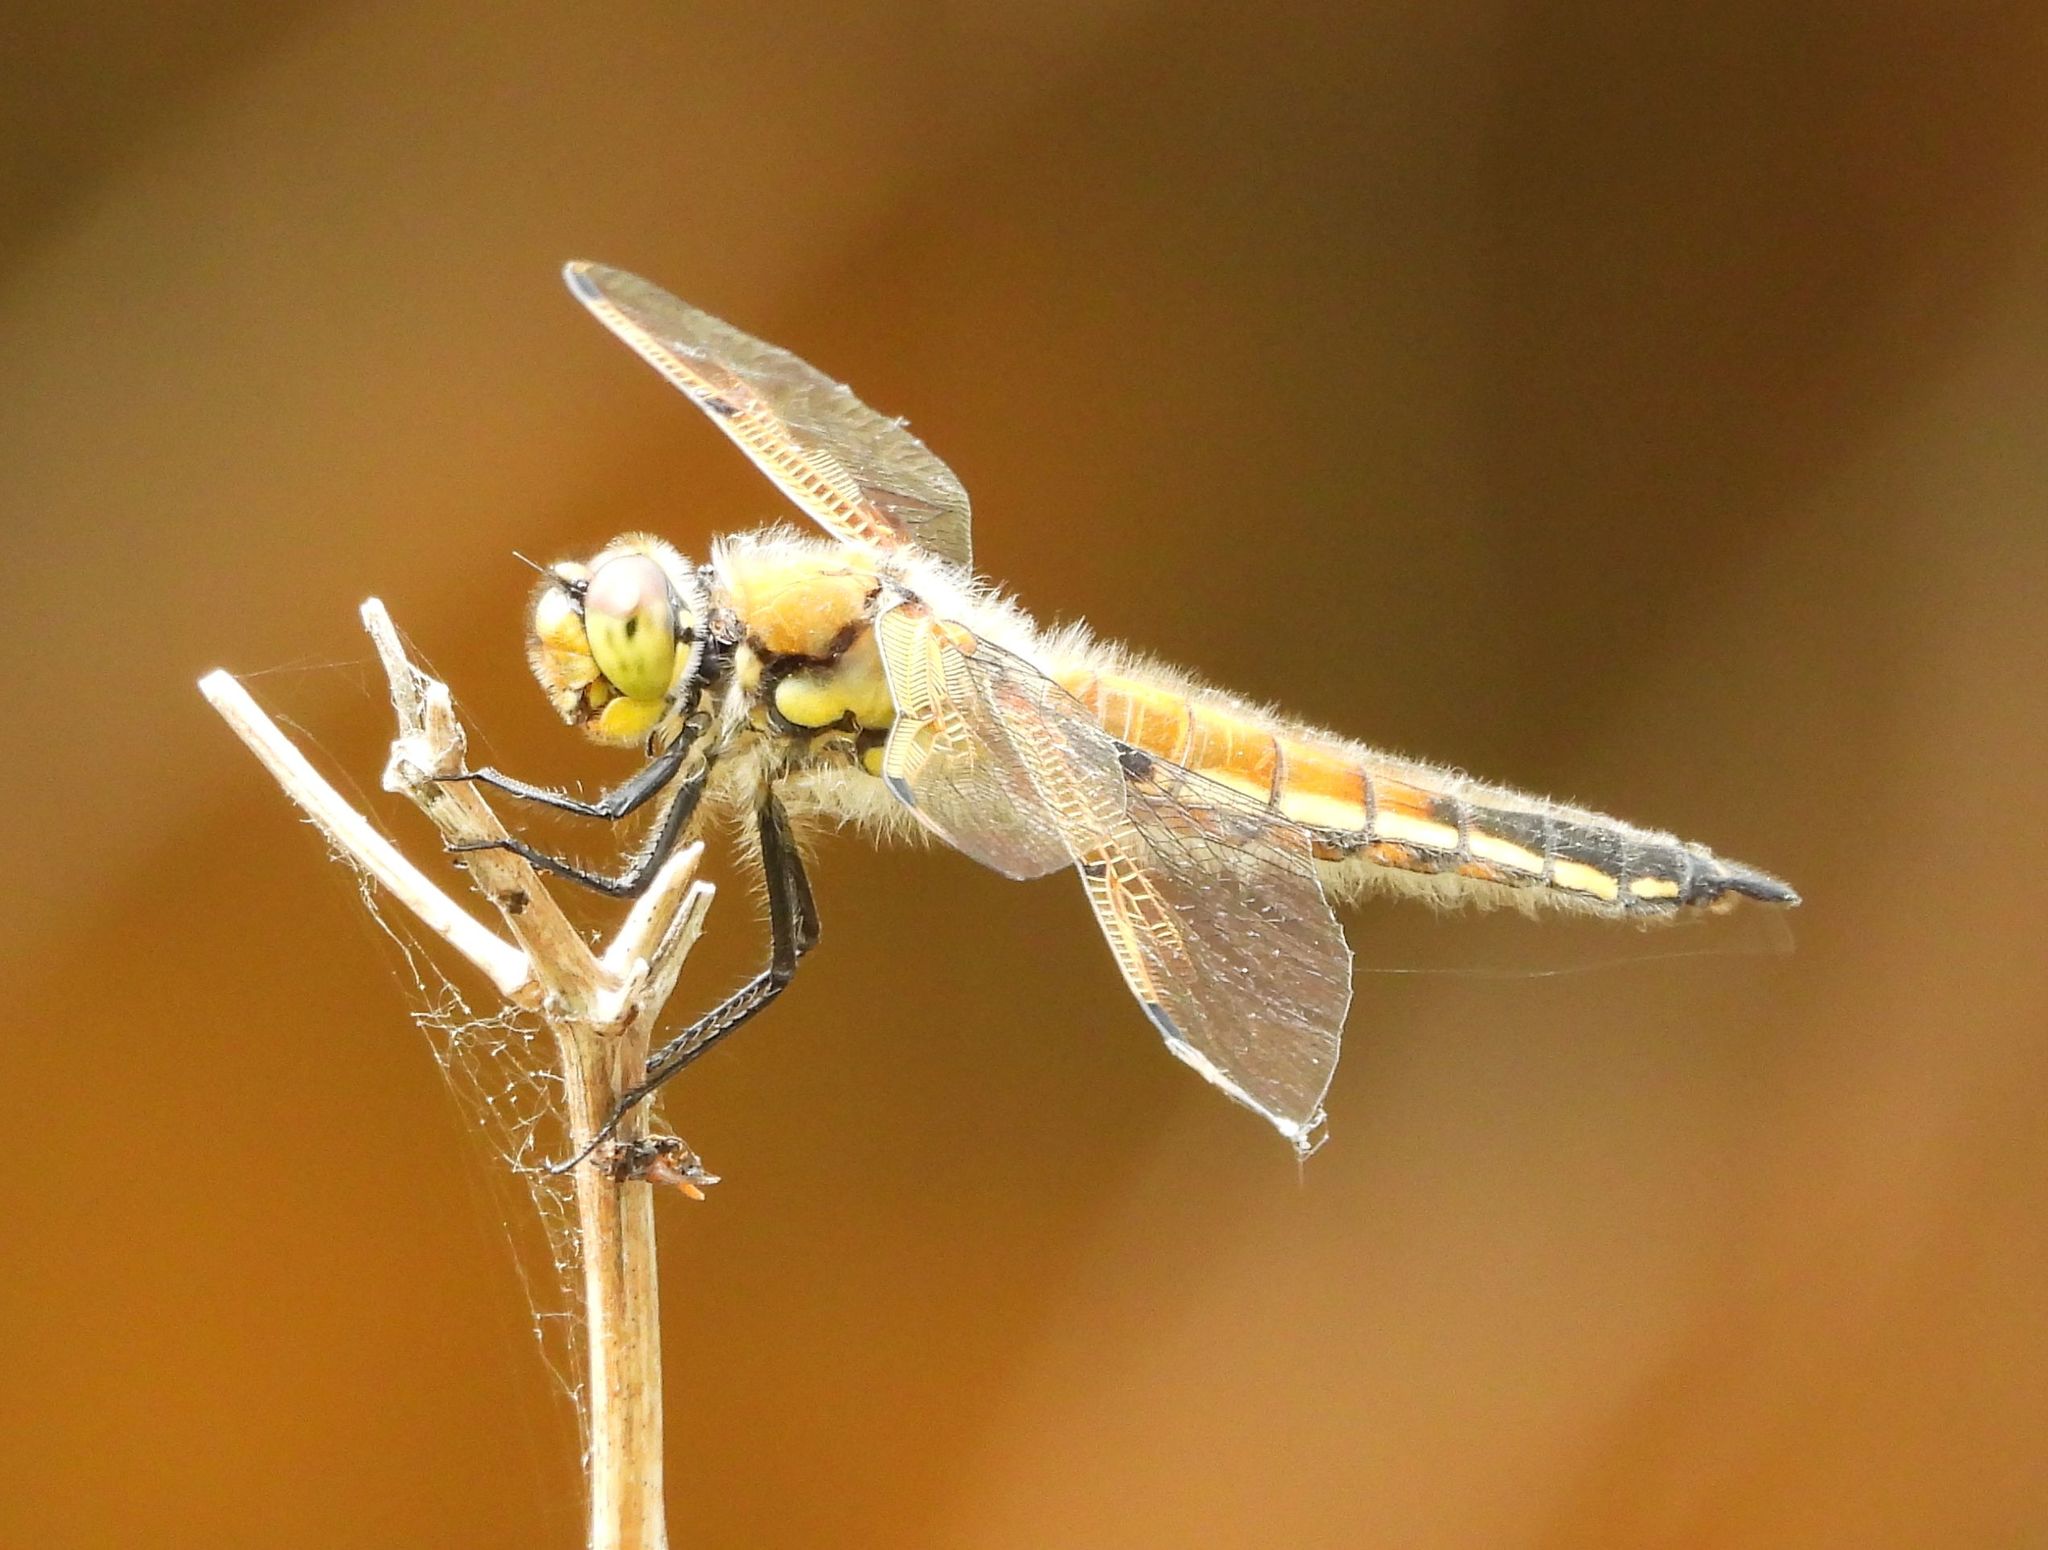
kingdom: Animalia
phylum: Arthropoda
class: Insecta
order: Odonata
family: Libellulidae
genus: Libellula
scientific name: Libellula quadrimaculata
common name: Four-spotted chaser
